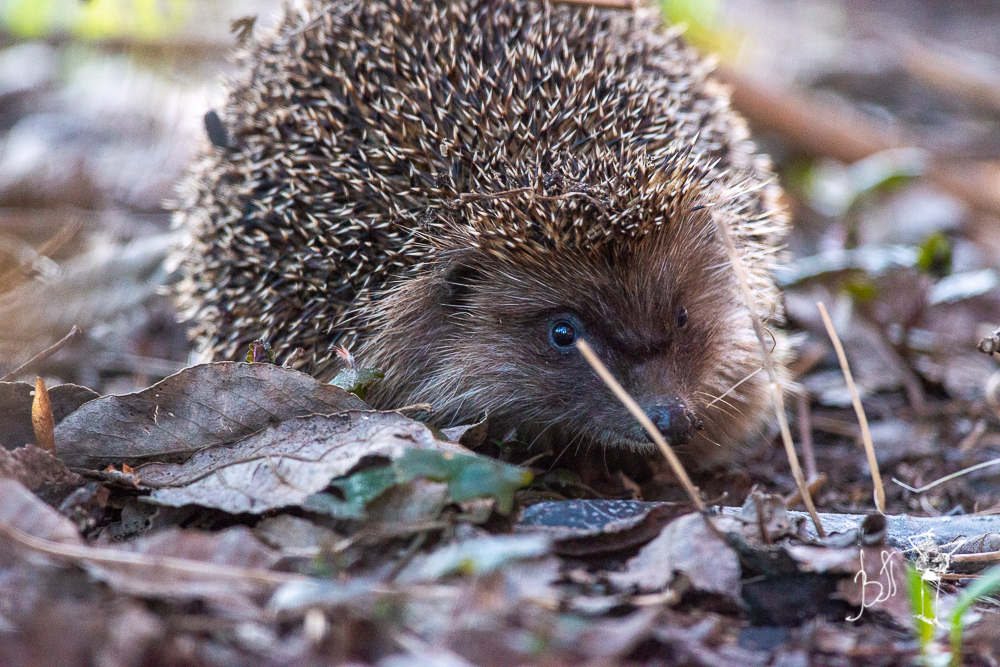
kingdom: Animalia
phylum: Chordata
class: Mammalia
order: Erinaceomorpha
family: Erinaceidae
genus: Erinaceus
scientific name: Erinaceus europaeus
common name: West european hedgehog
